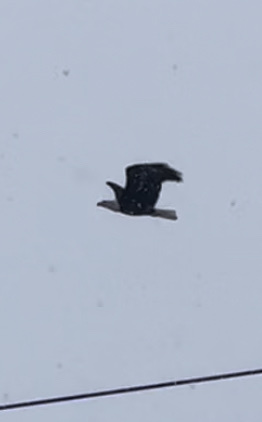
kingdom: Animalia
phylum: Chordata
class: Aves
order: Accipitriformes
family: Accipitridae
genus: Haliaeetus
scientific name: Haliaeetus leucocephalus
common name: Bald eagle
